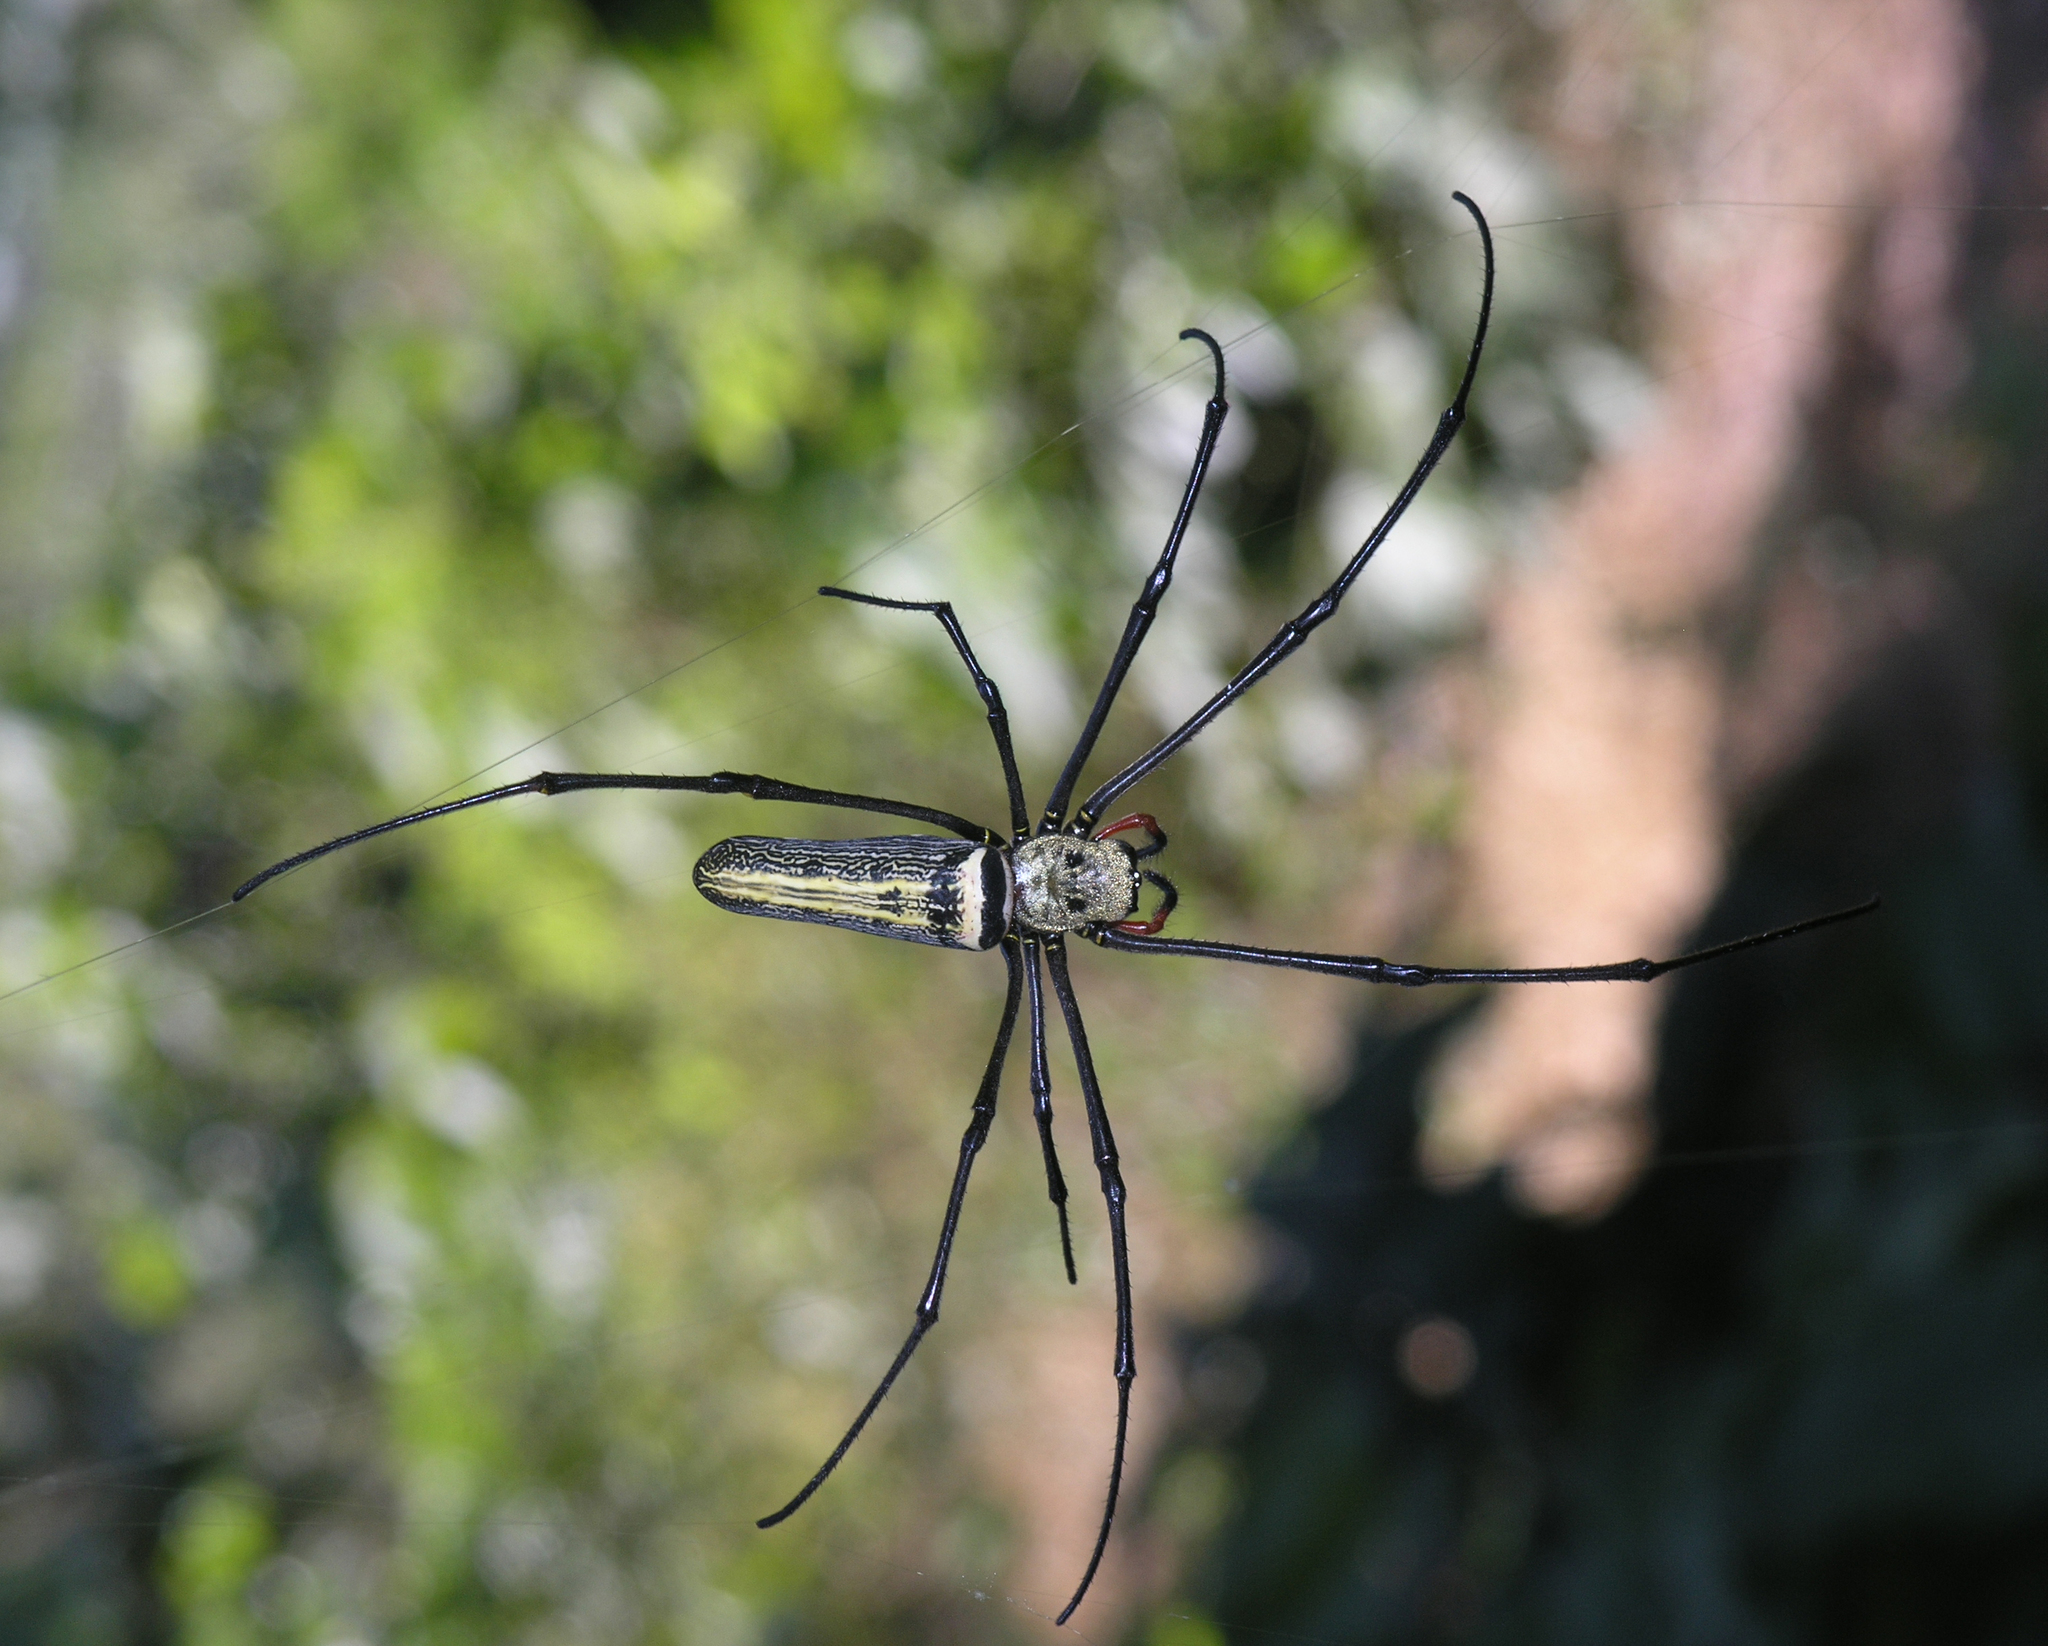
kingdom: Animalia
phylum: Arthropoda
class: Arachnida
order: Araneae
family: Araneidae
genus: Nephila
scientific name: Nephila pilipes
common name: Giant golden orb weaver
